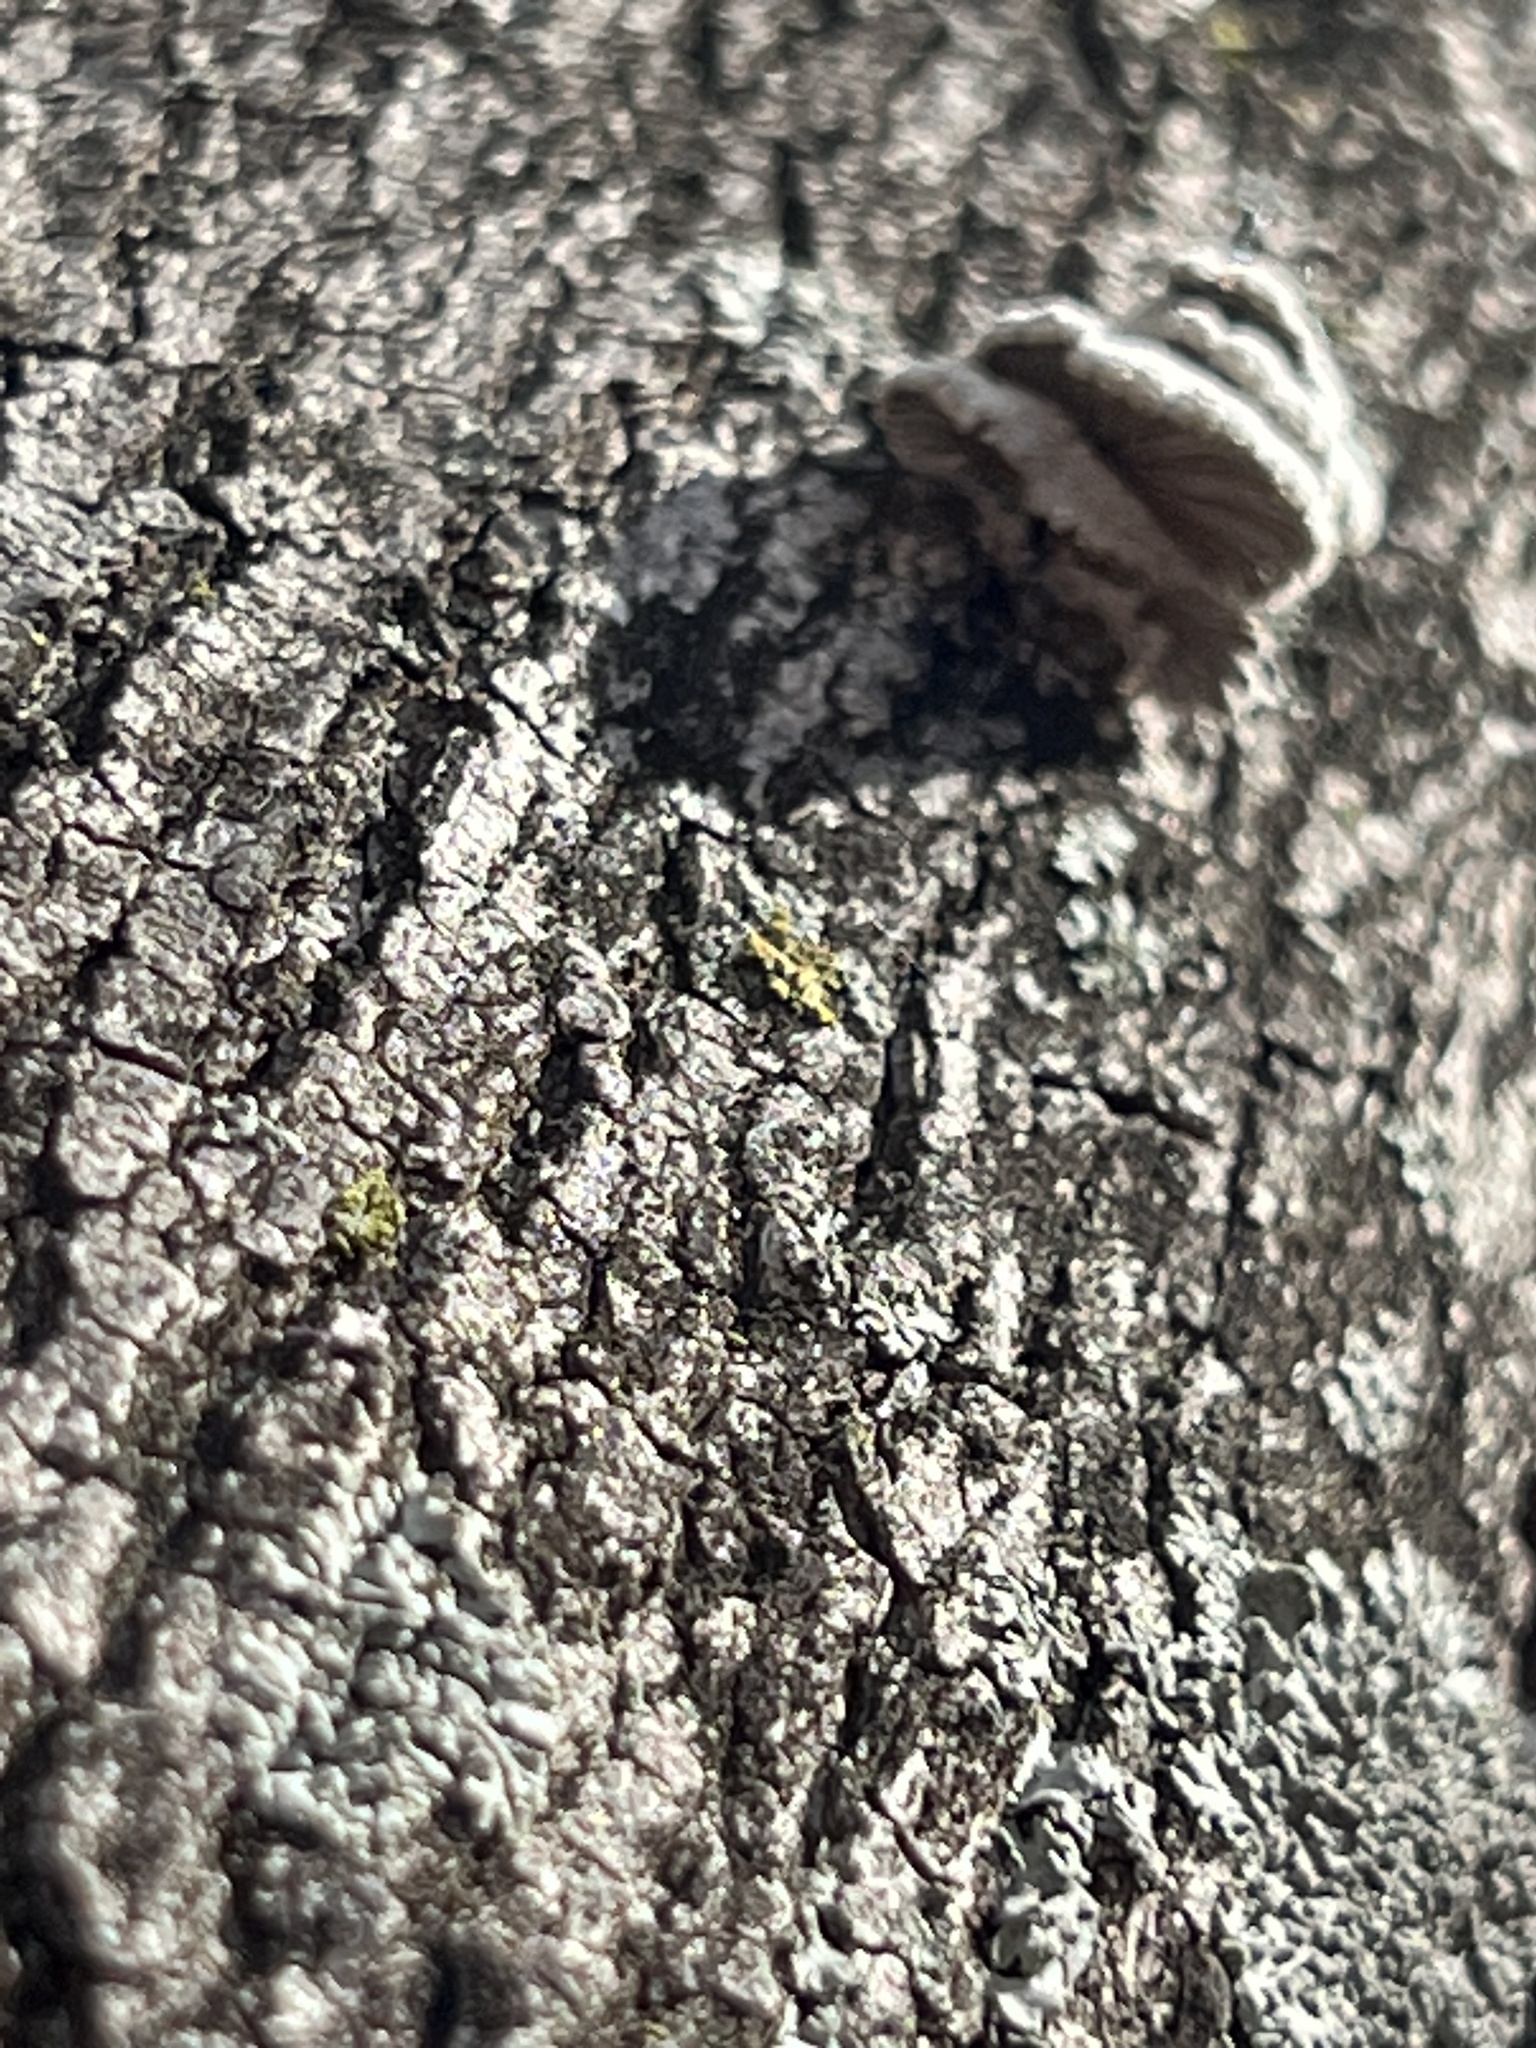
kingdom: Fungi
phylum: Basidiomycota
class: Agaricomycetes
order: Agaricales
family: Schizophyllaceae
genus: Schizophyllum
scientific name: Schizophyllum commune
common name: Common porecrust
